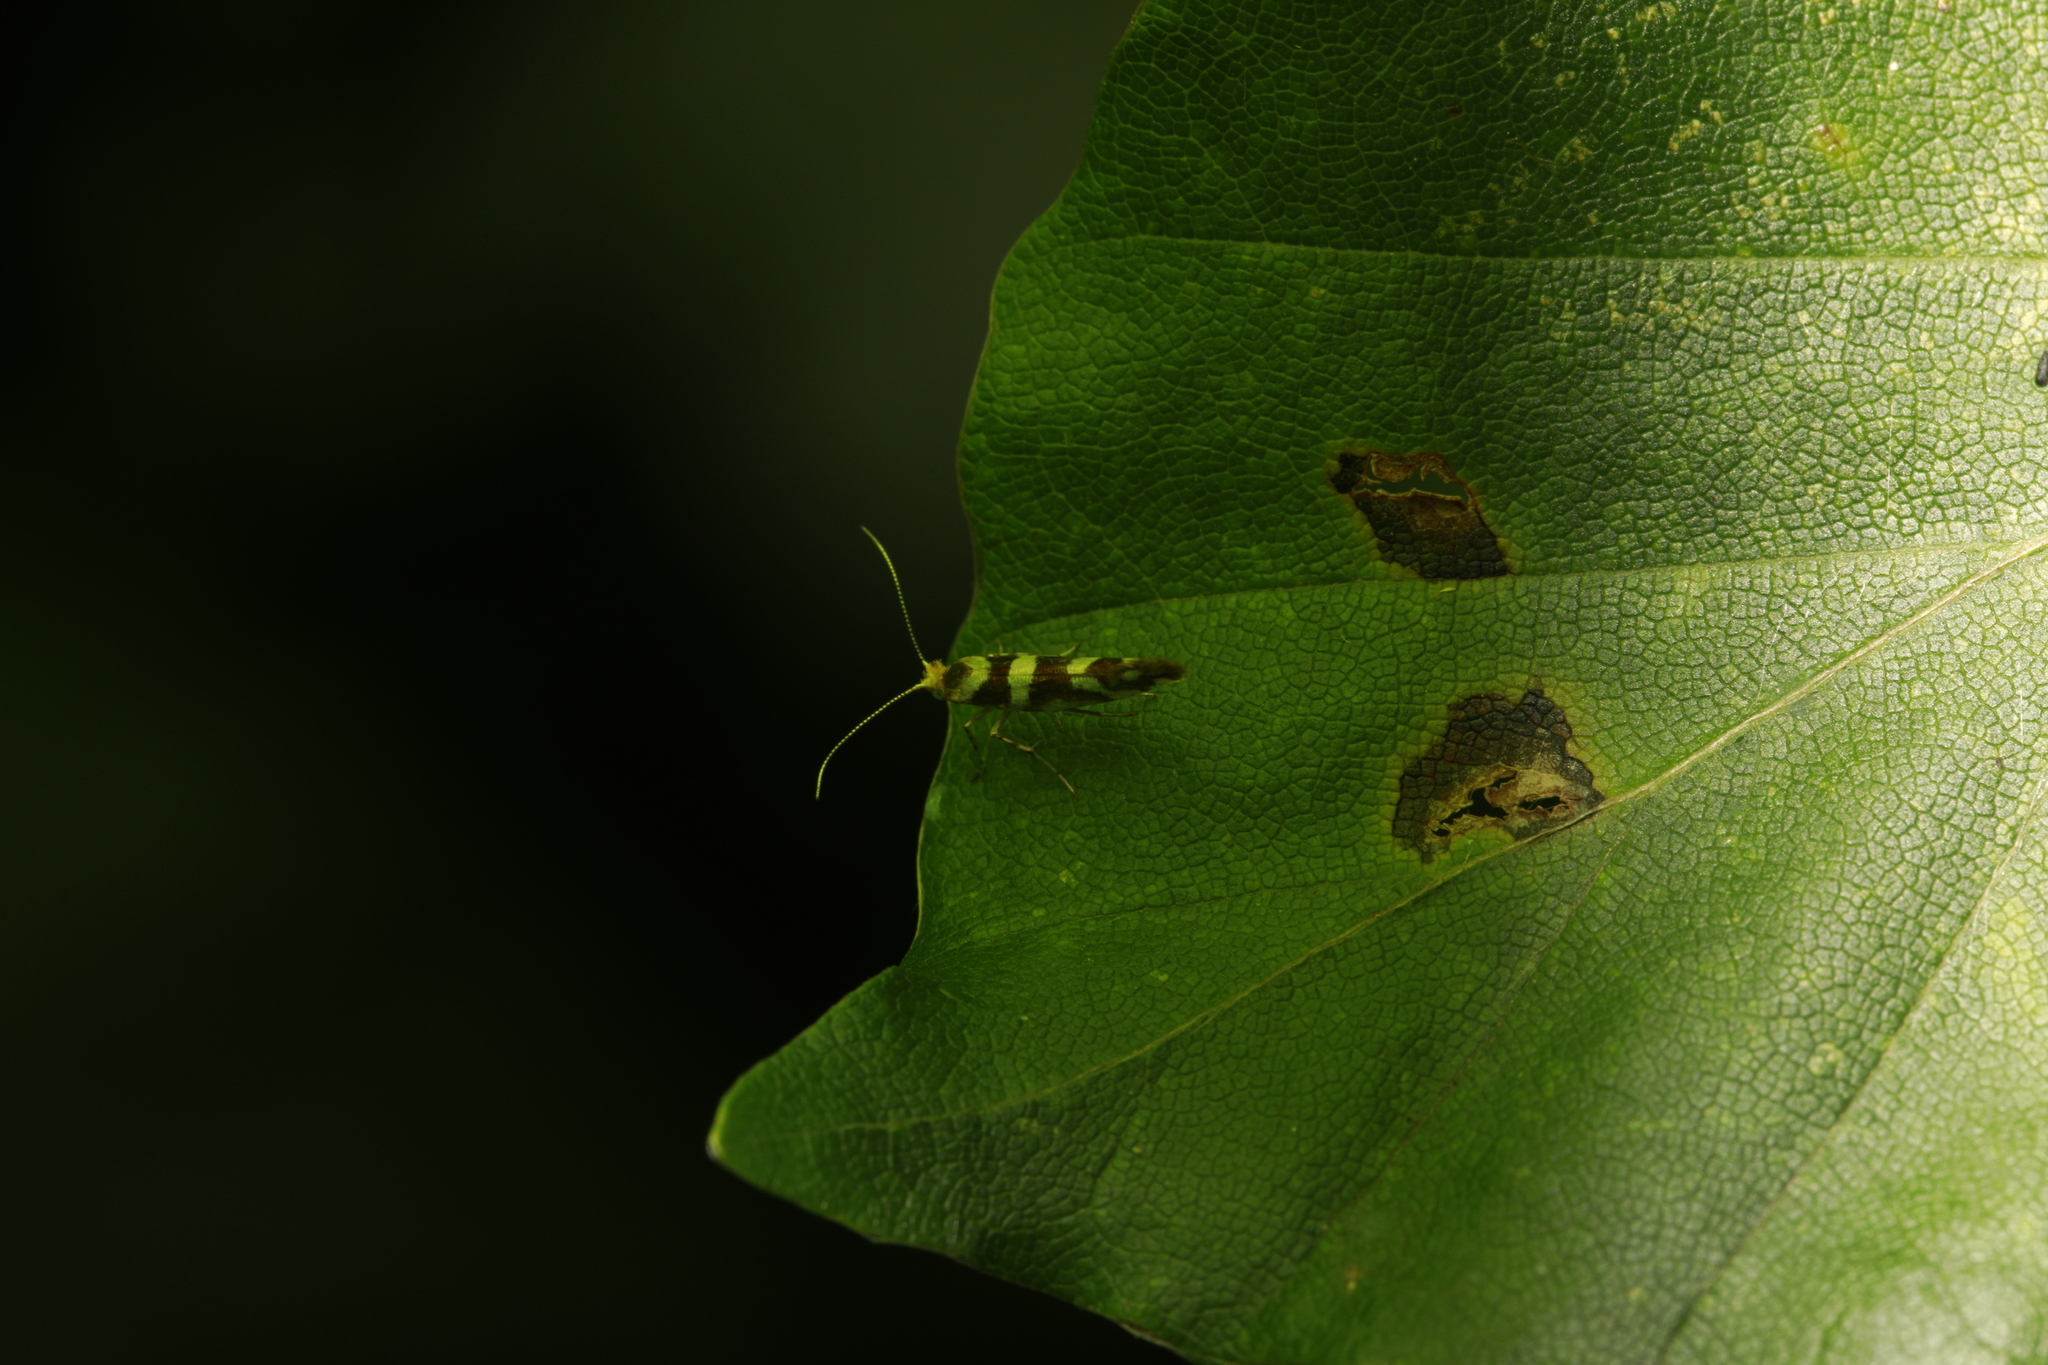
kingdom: Animalia
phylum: Arthropoda
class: Insecta
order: Lepidoptera
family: Argyresthiidae
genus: Argyresthia
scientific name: Argyresthia brockeella
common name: Gold-ribbon argent
